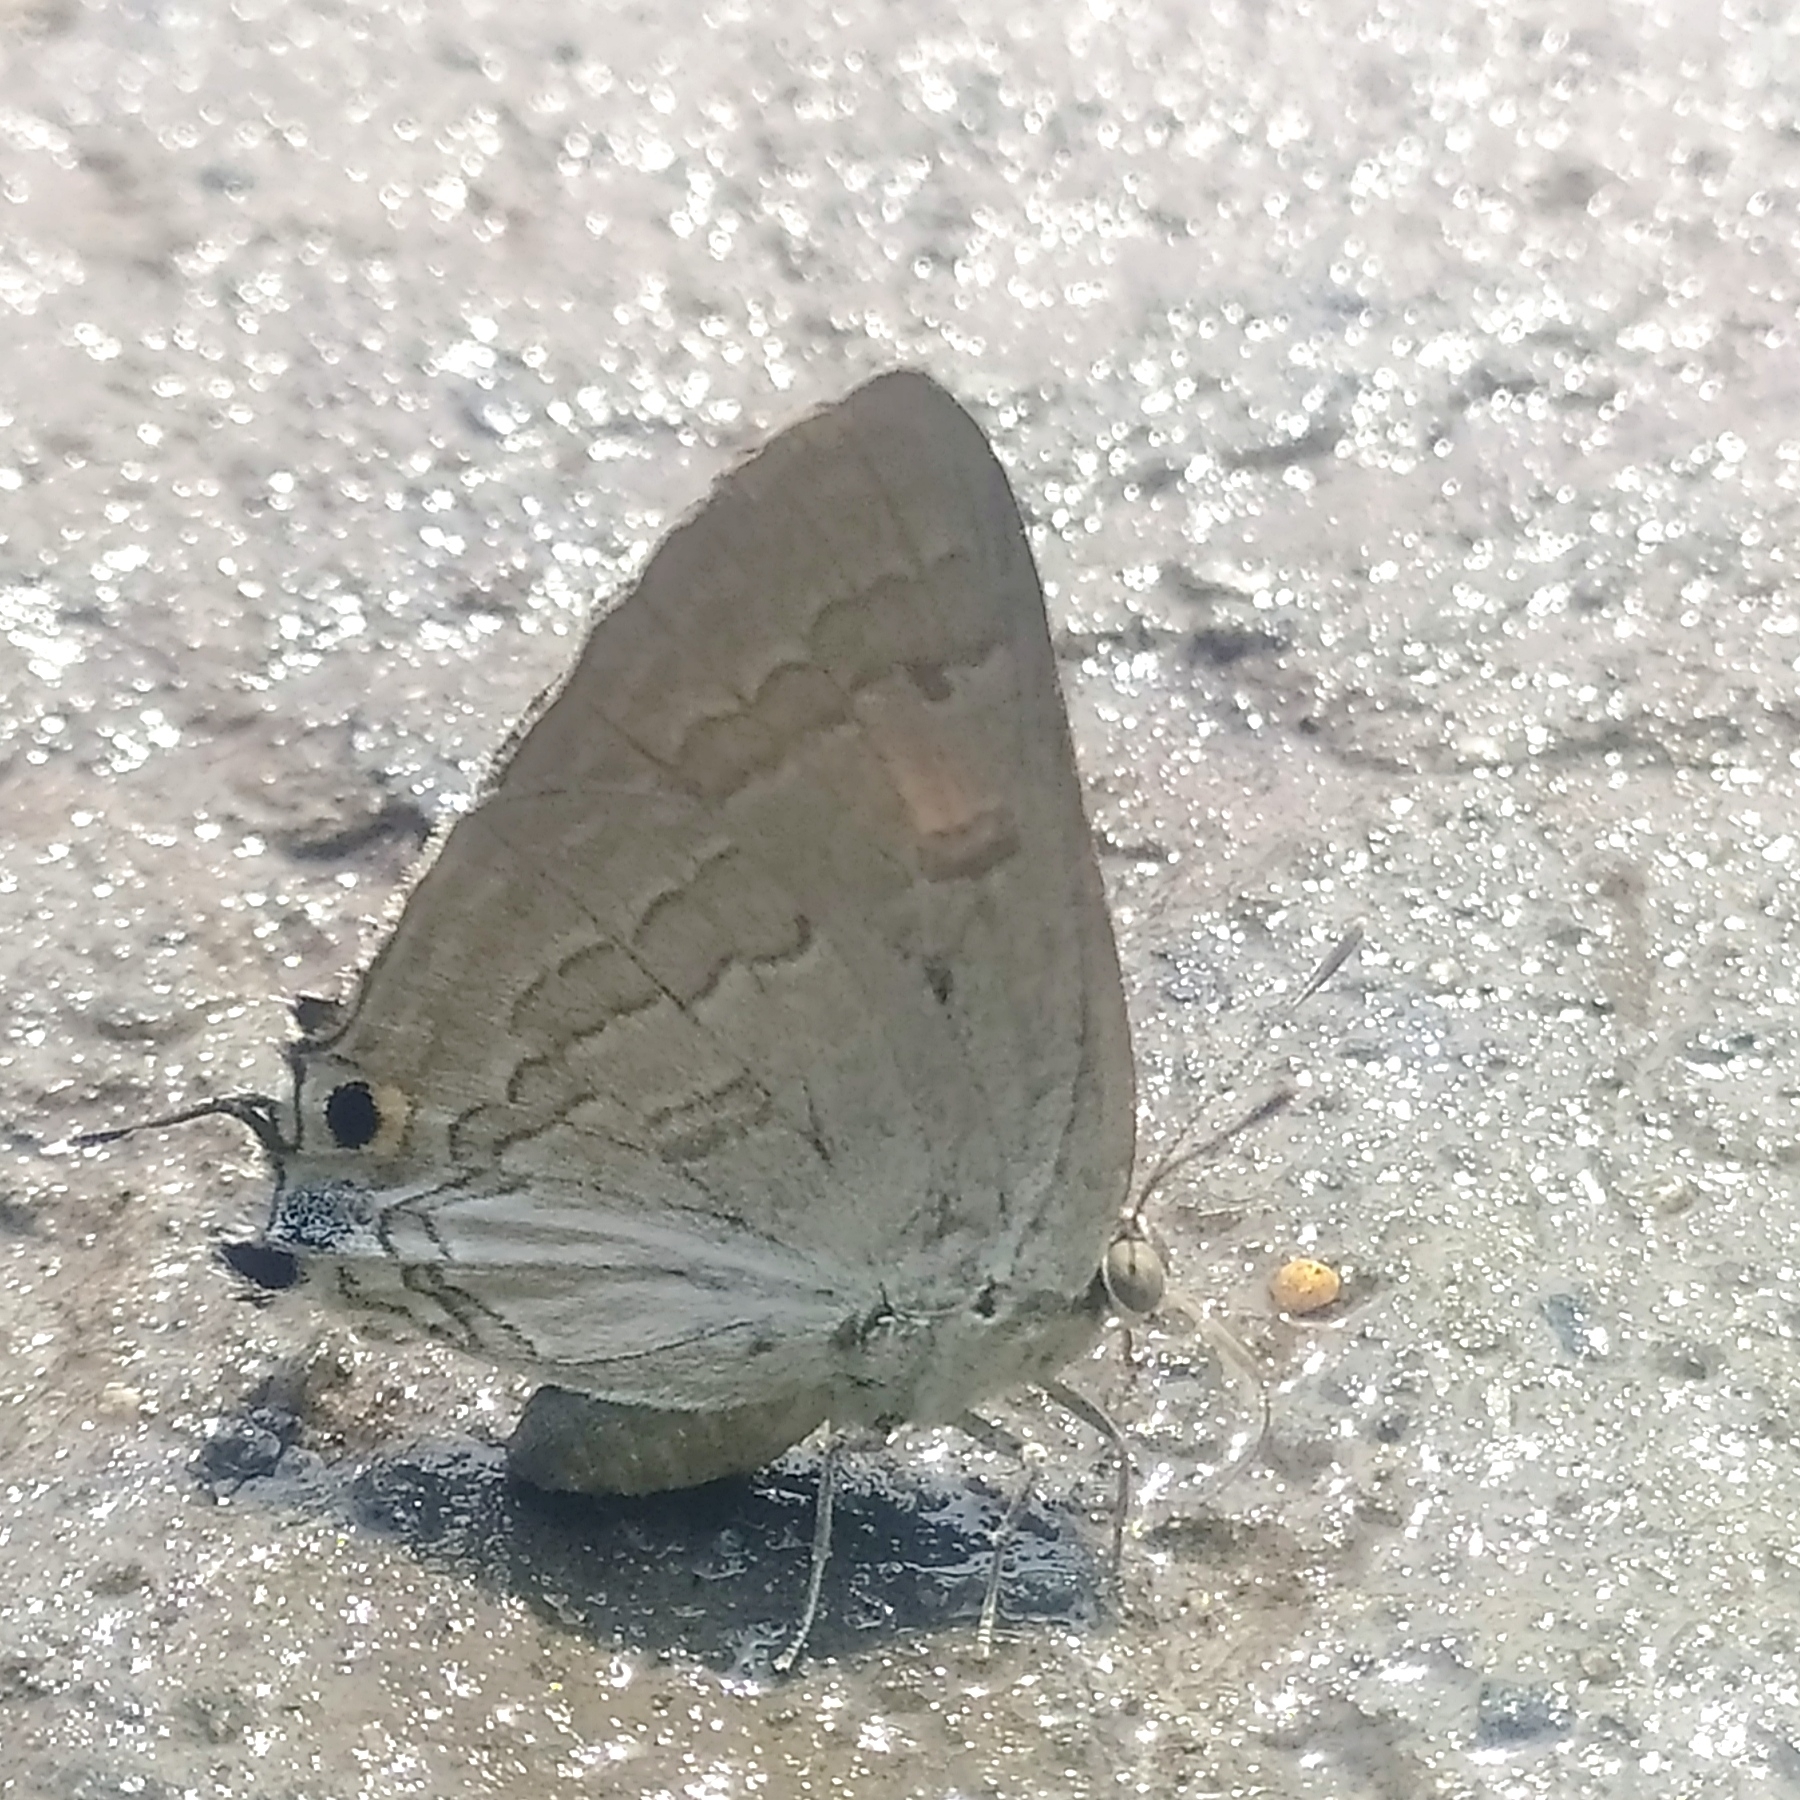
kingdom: Animalia
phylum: Arthropoda
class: Insecta
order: Lepidoptera
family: Lycaenidae
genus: Deudorix
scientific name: Deudorix
